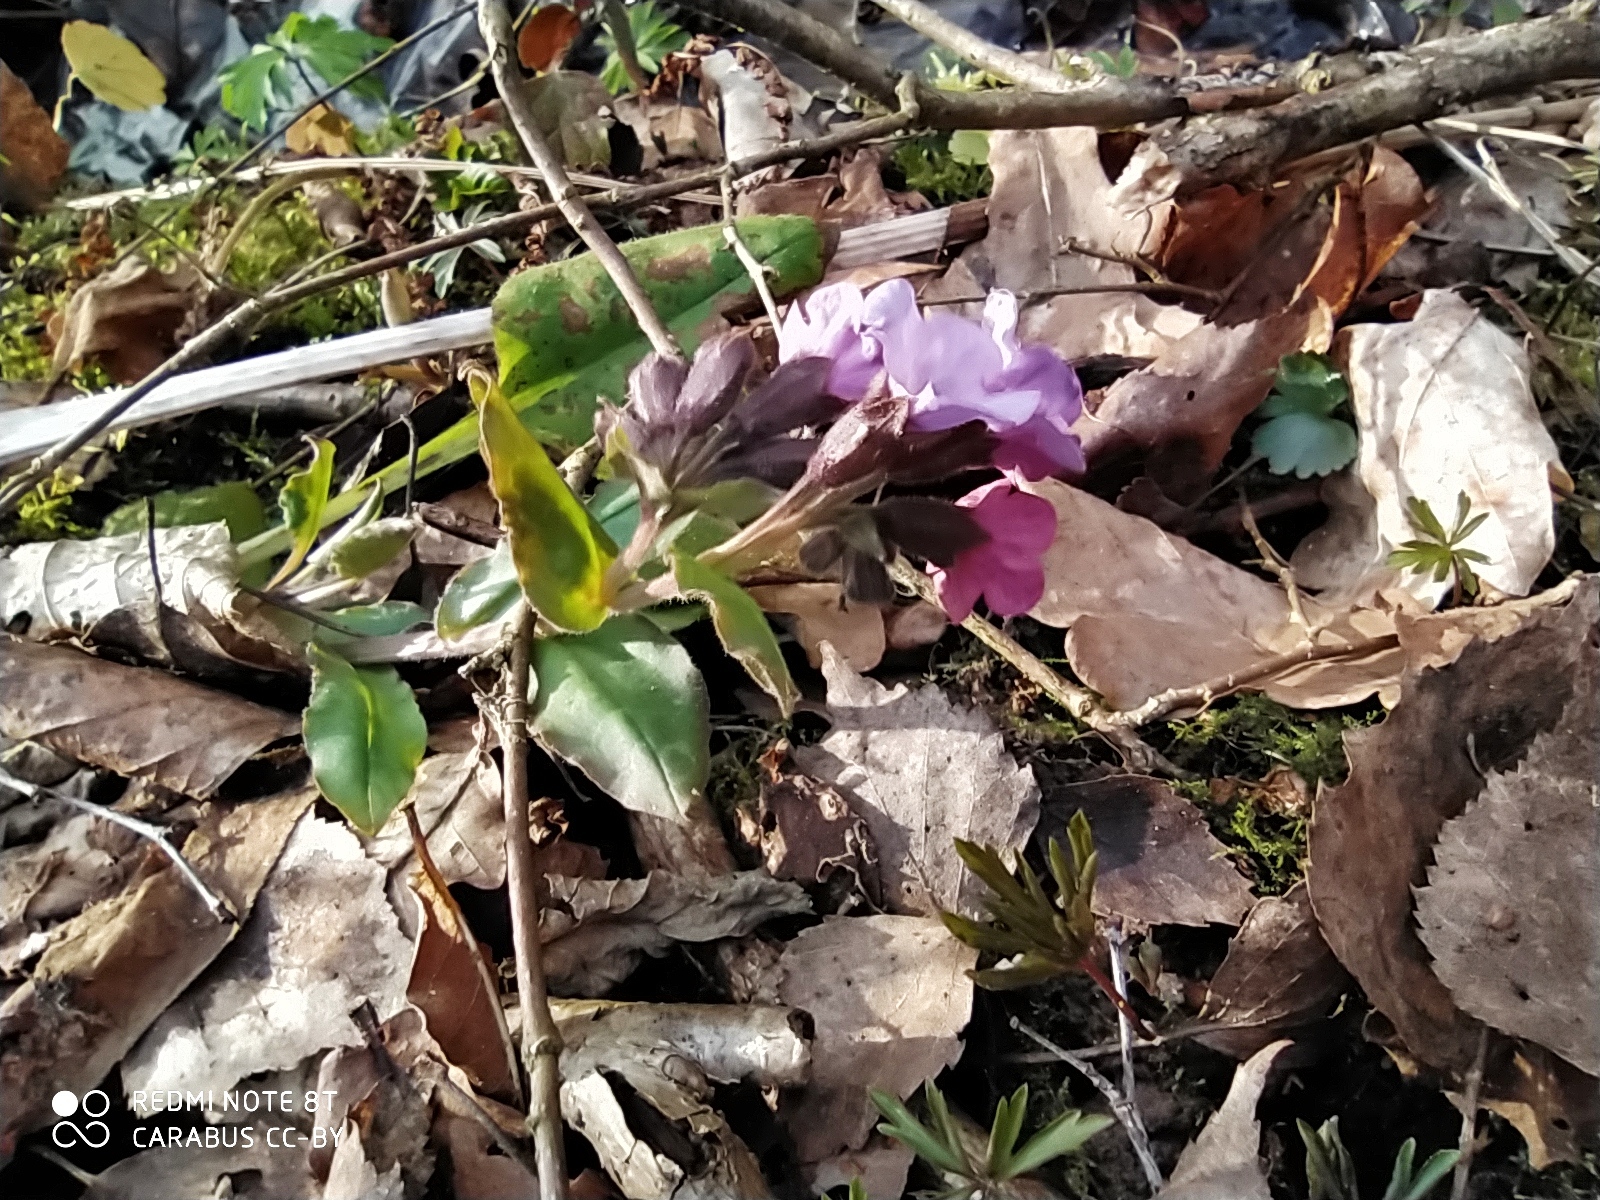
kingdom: Plantae
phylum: Tracheophyta
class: Magnoliopsida
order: Boraginales
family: Boraginaceae
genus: Pulmonaria
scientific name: Pulmonaria obscura
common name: Suffolk lungwort
